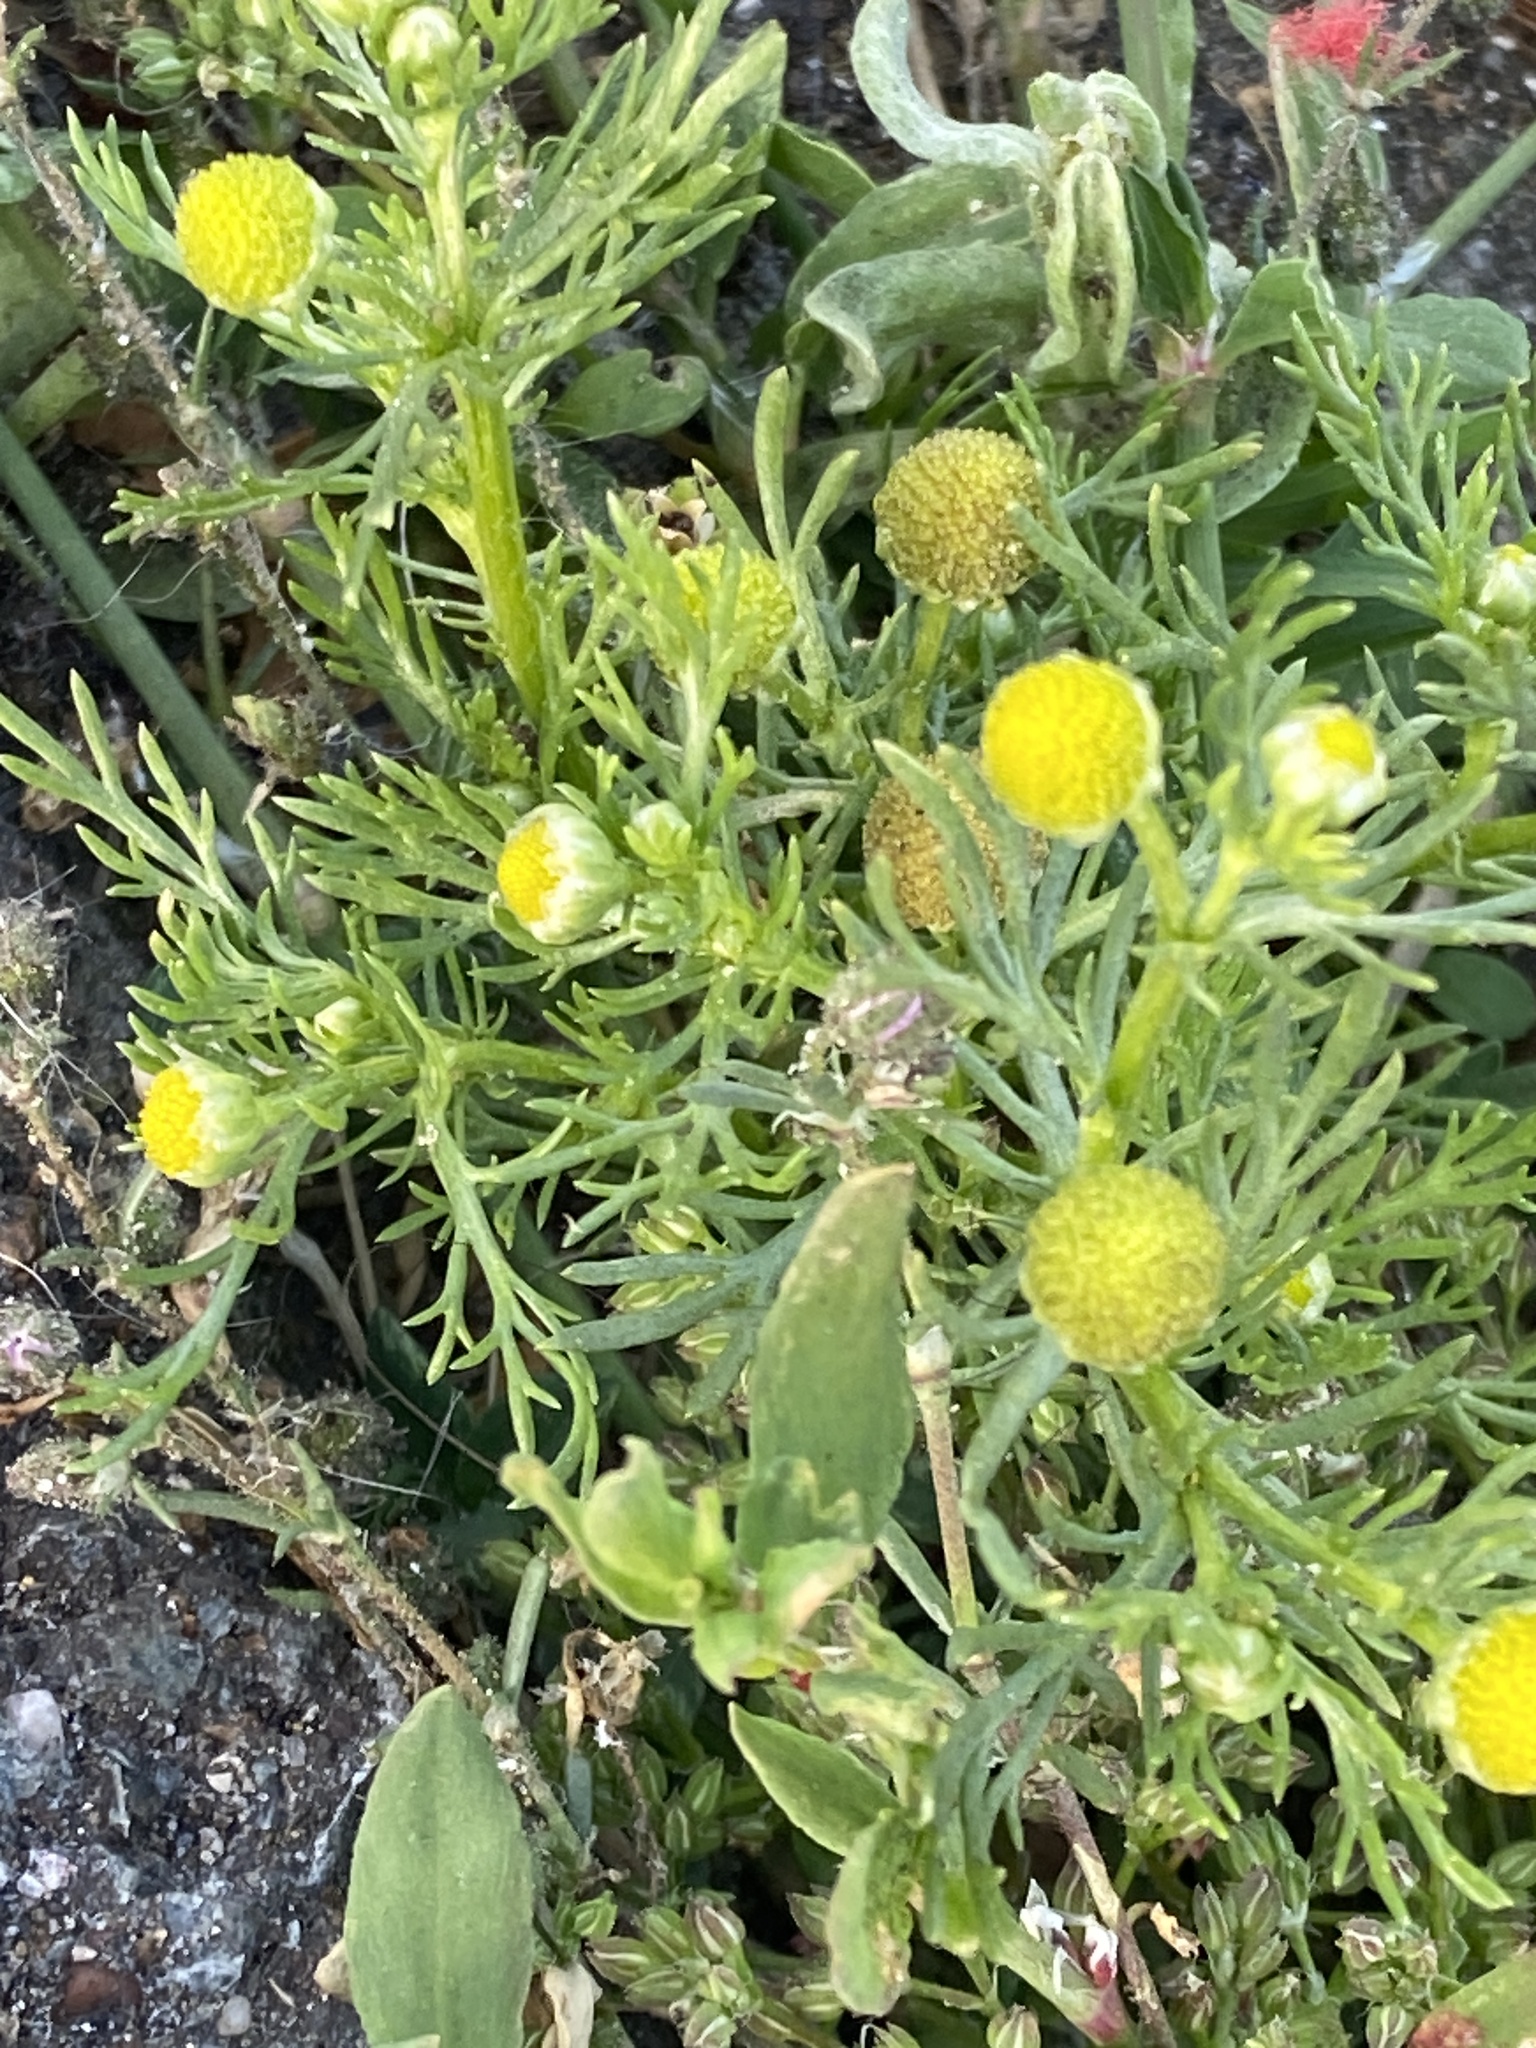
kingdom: Plantae
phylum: Tracheophyta
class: Magnoliopsida
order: Asterales
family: Asteraceae
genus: Matricaria
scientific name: Matricaria discoidea
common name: Disc mayweed
